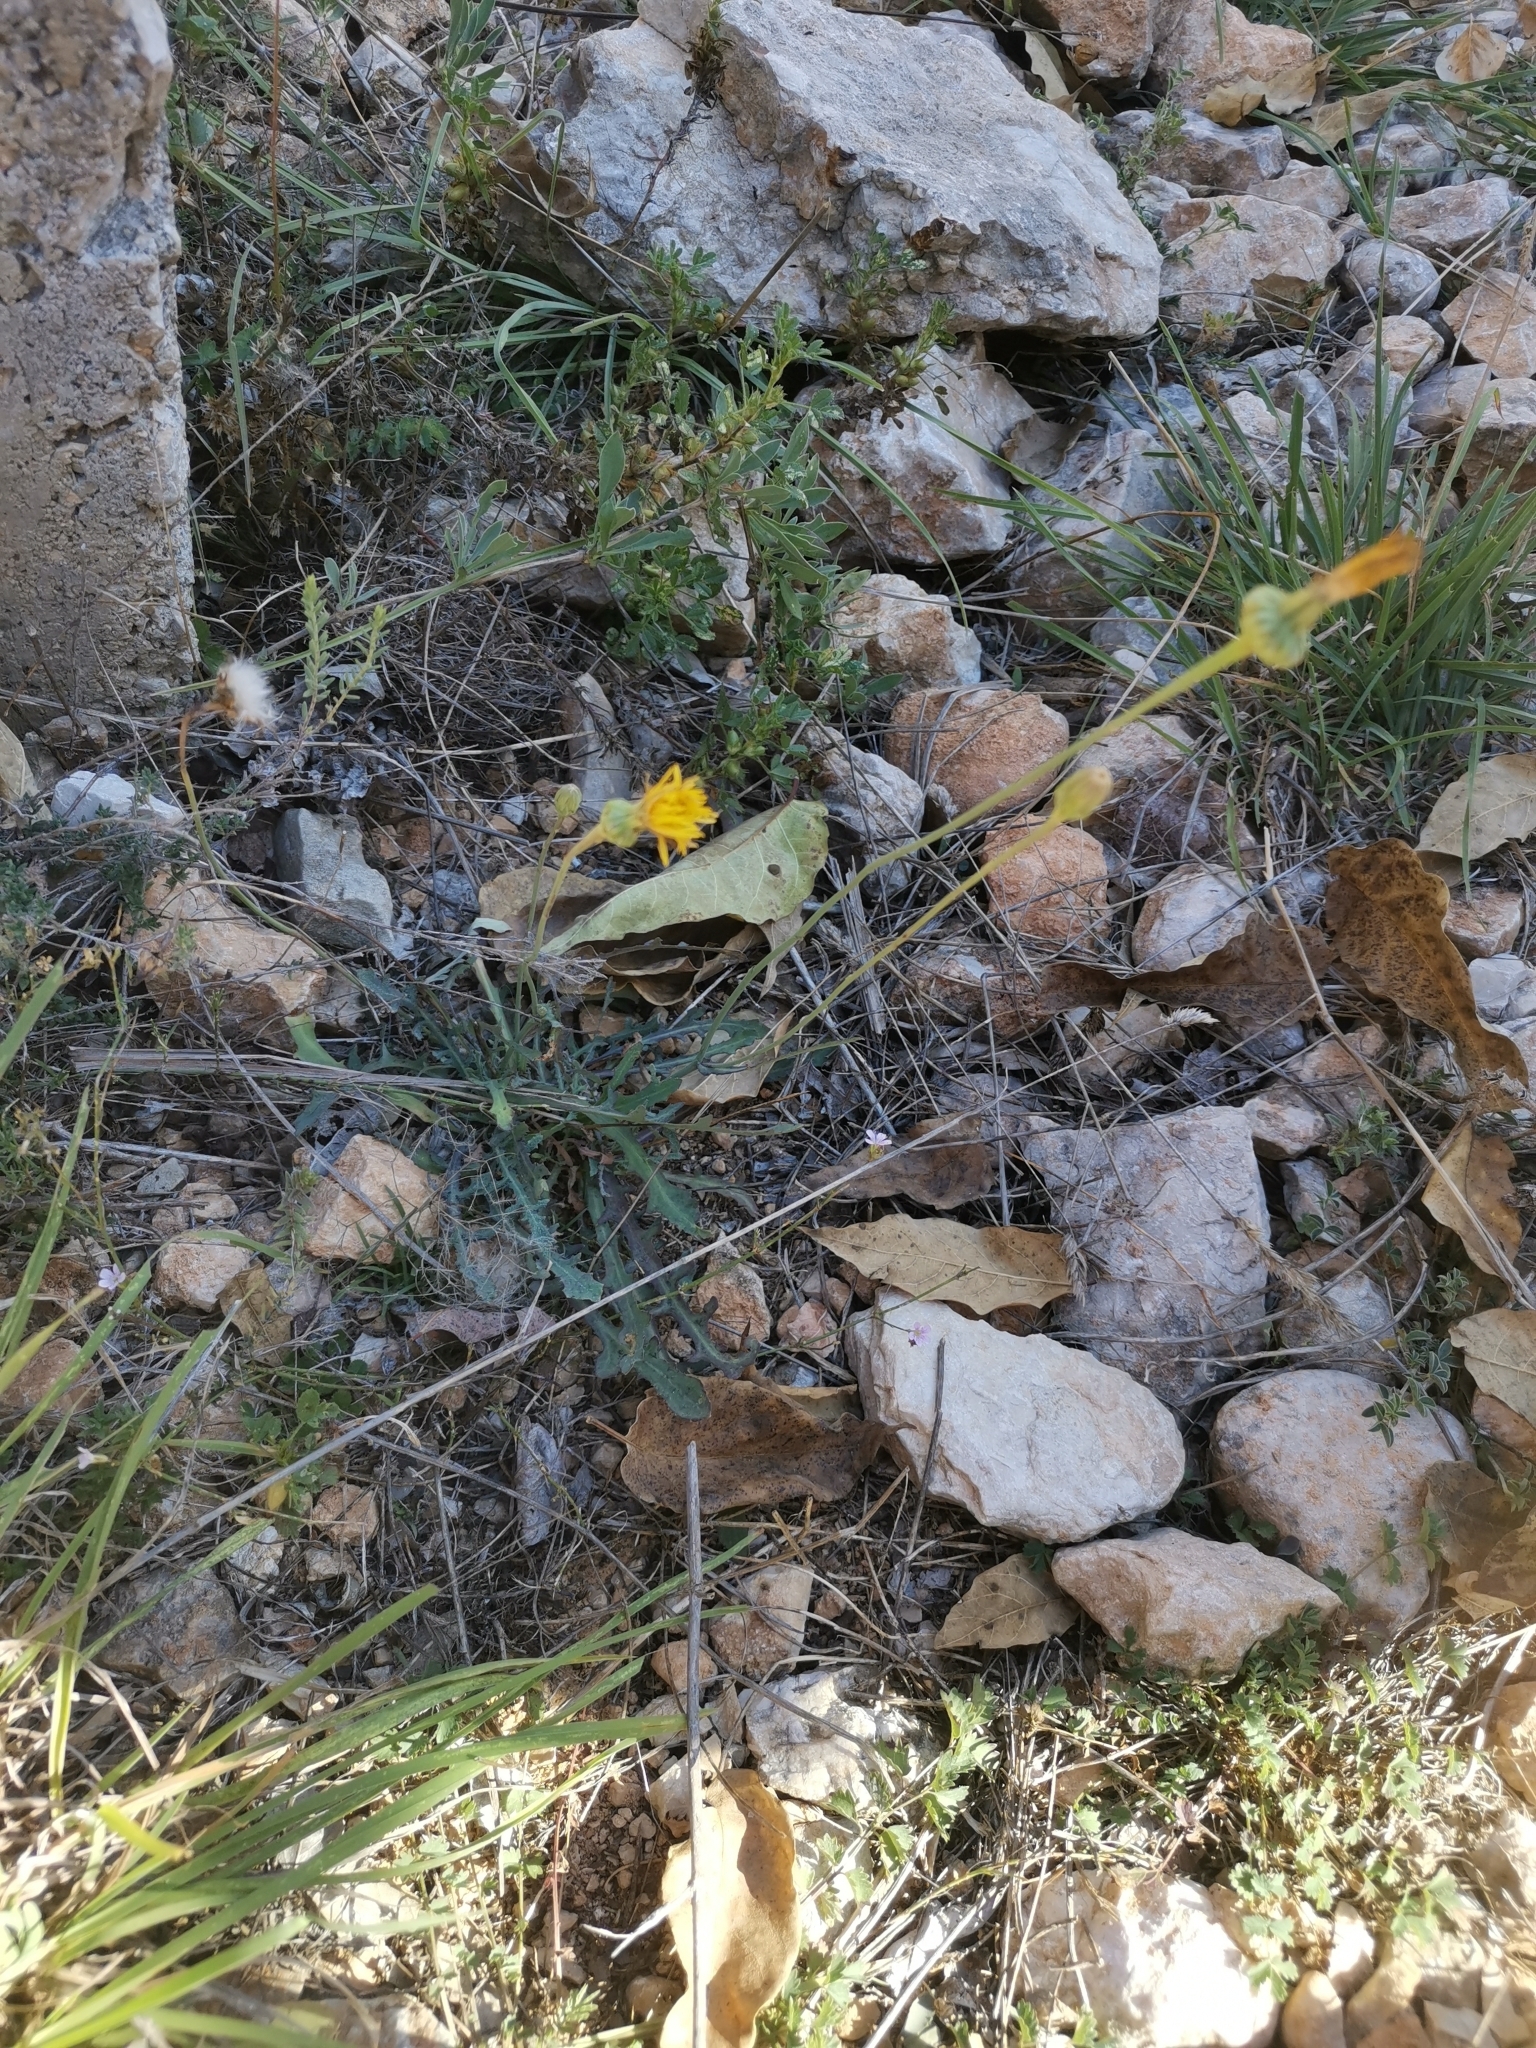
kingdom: Plantae
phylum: Tracheophyta
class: Magnoliopsida
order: Asterales
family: Asteraceae
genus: Reichardia
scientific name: Reichardia picroides
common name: Common brighteyes
